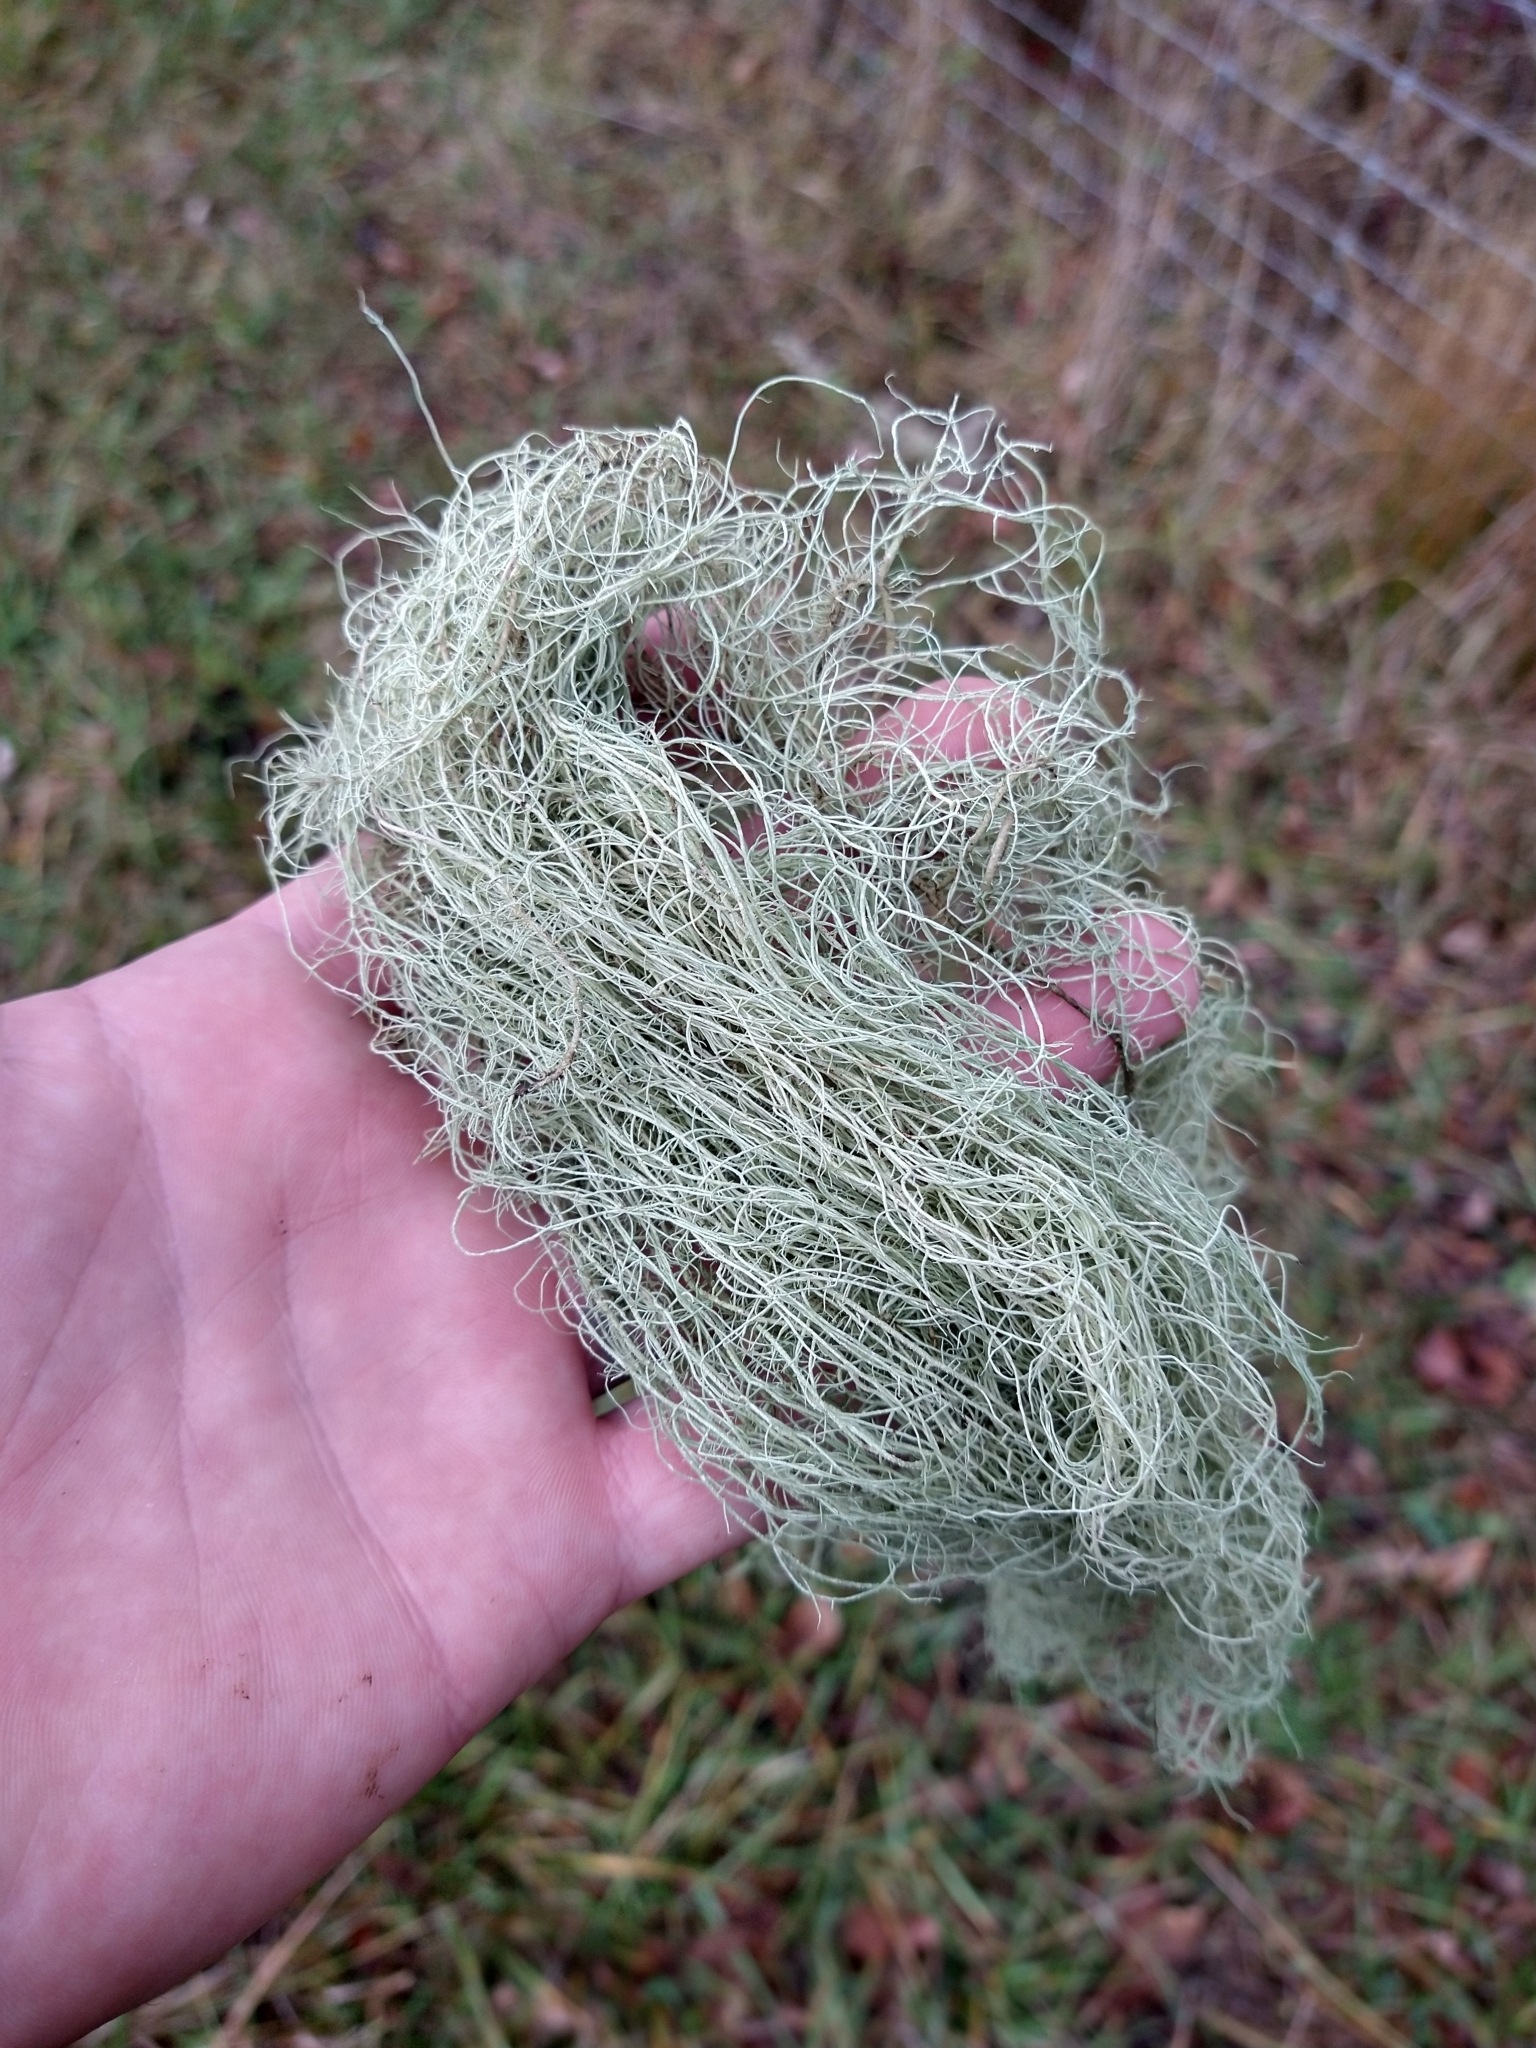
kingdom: Fungi
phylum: Ascomycota
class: Lecanoromycetes
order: Lecanorales
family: Parmeliaceae
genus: Usnea
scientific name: Usnea dasopoga
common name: Fishbone beard lichen
